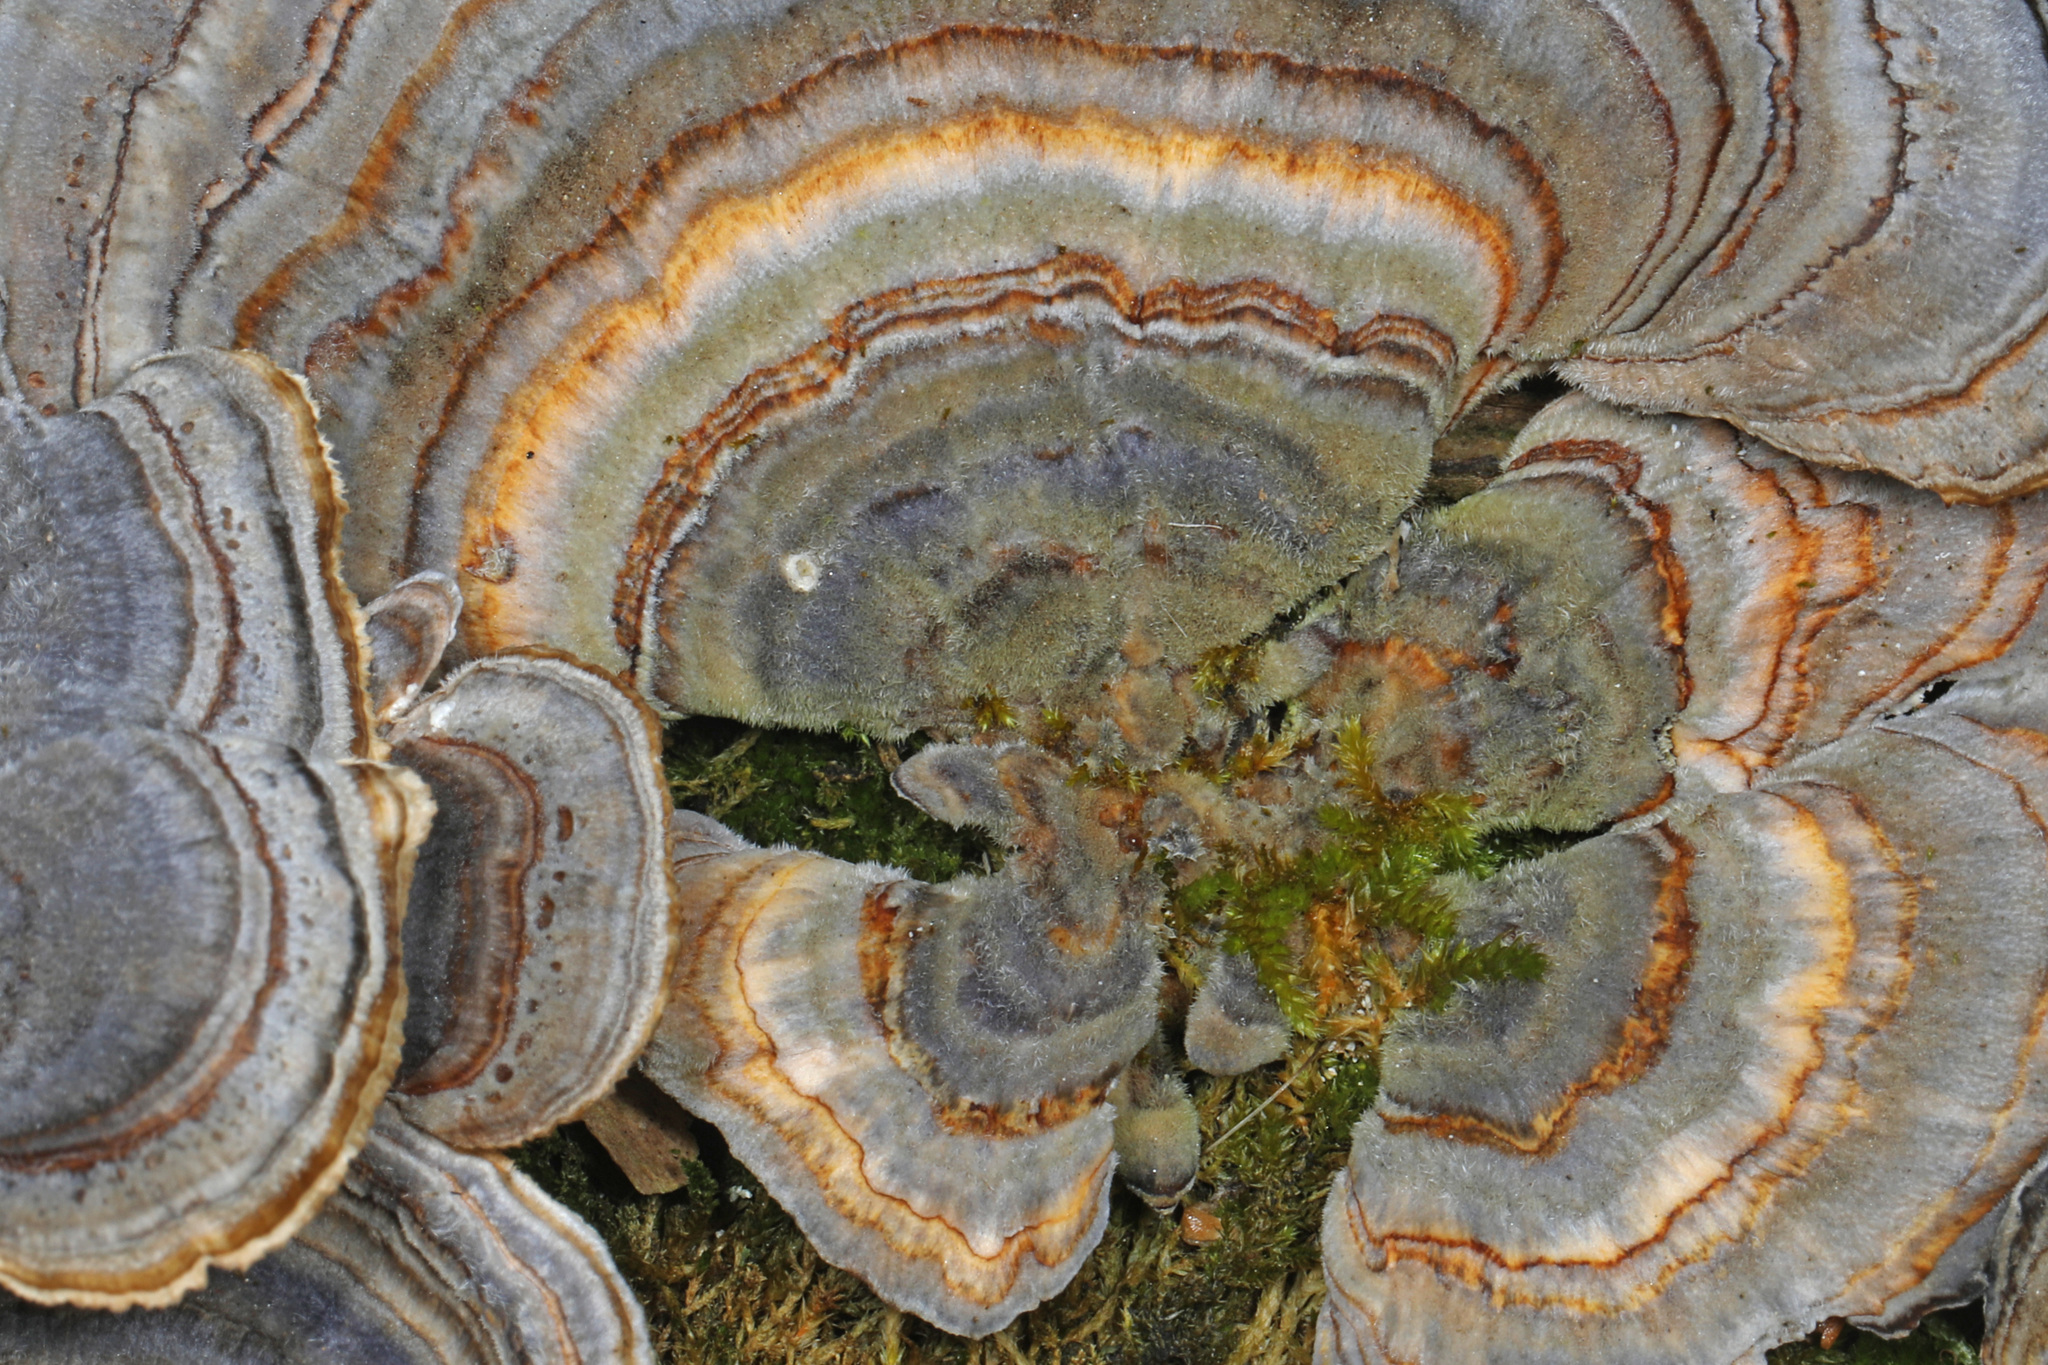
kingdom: Fungi
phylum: Basidiomycota
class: Agaricomycetes
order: Polyporales
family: Polyporaceae
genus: Trametes
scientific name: Trametes versicolor
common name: Turkeytail
